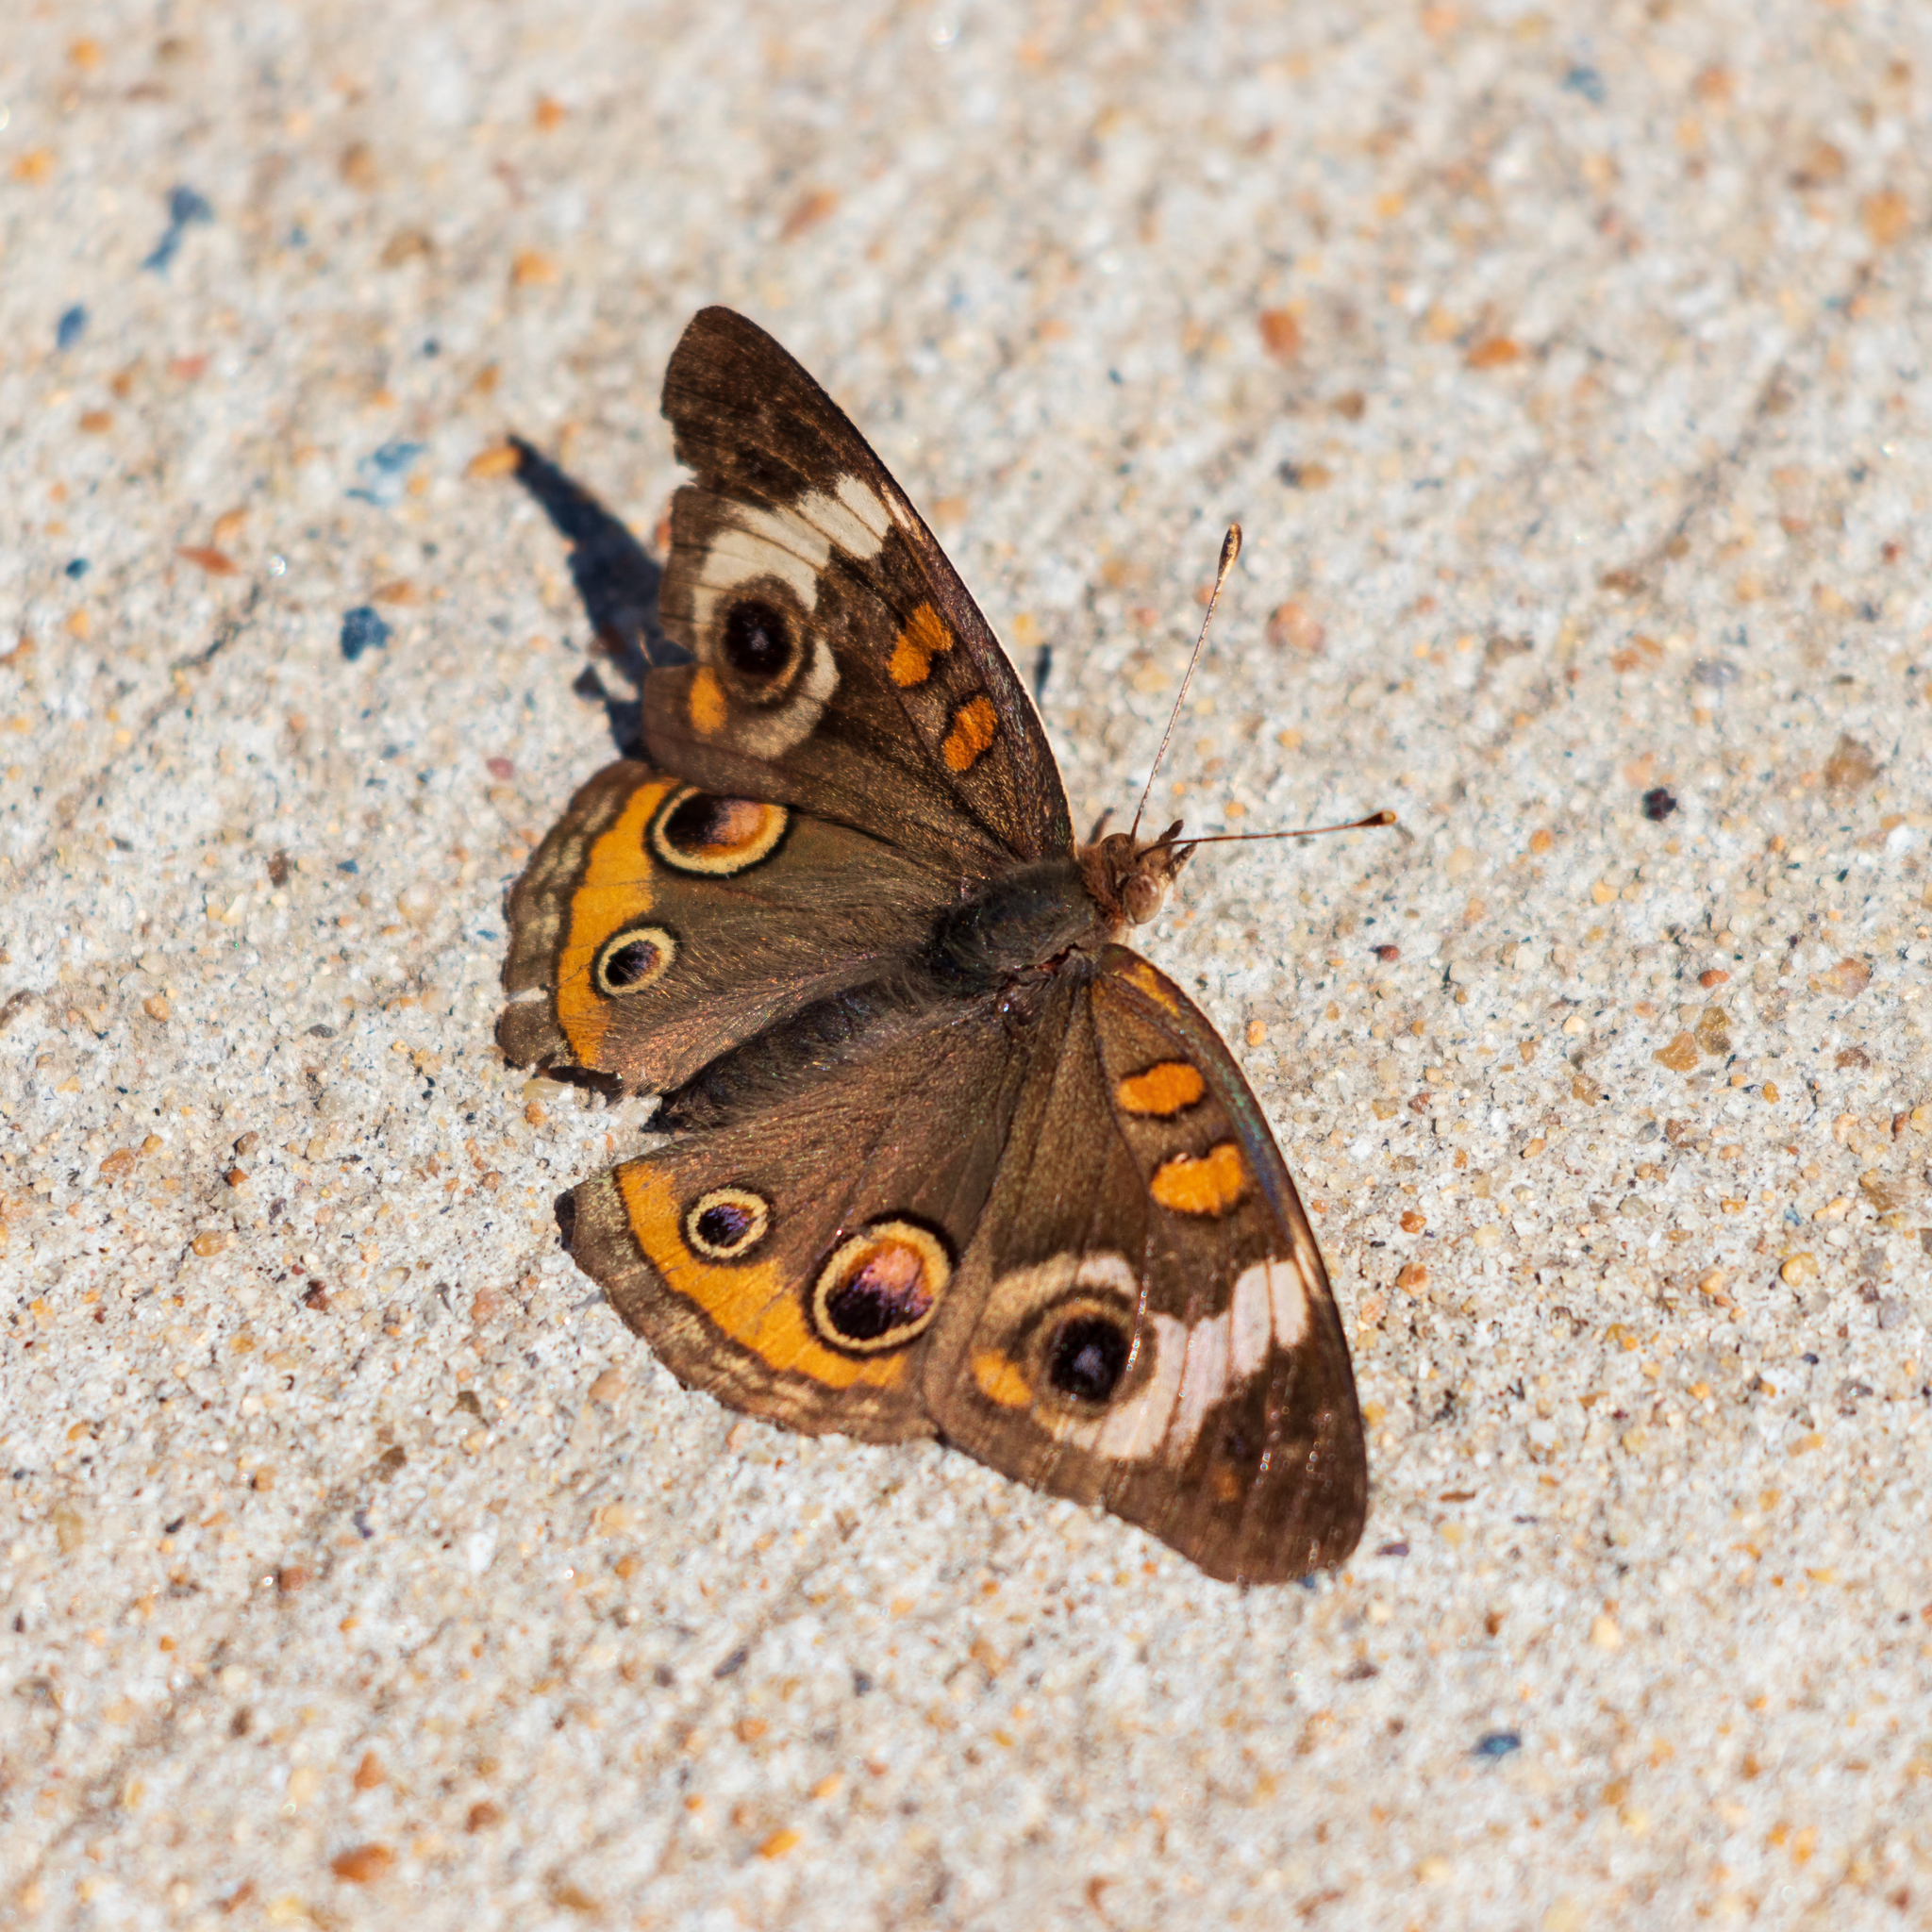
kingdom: Animalia
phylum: Arthropoda
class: Insecta
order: Lepidoptera
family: Nymphalidae
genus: Junonia
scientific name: Junonia coenia
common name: Common buckeye
